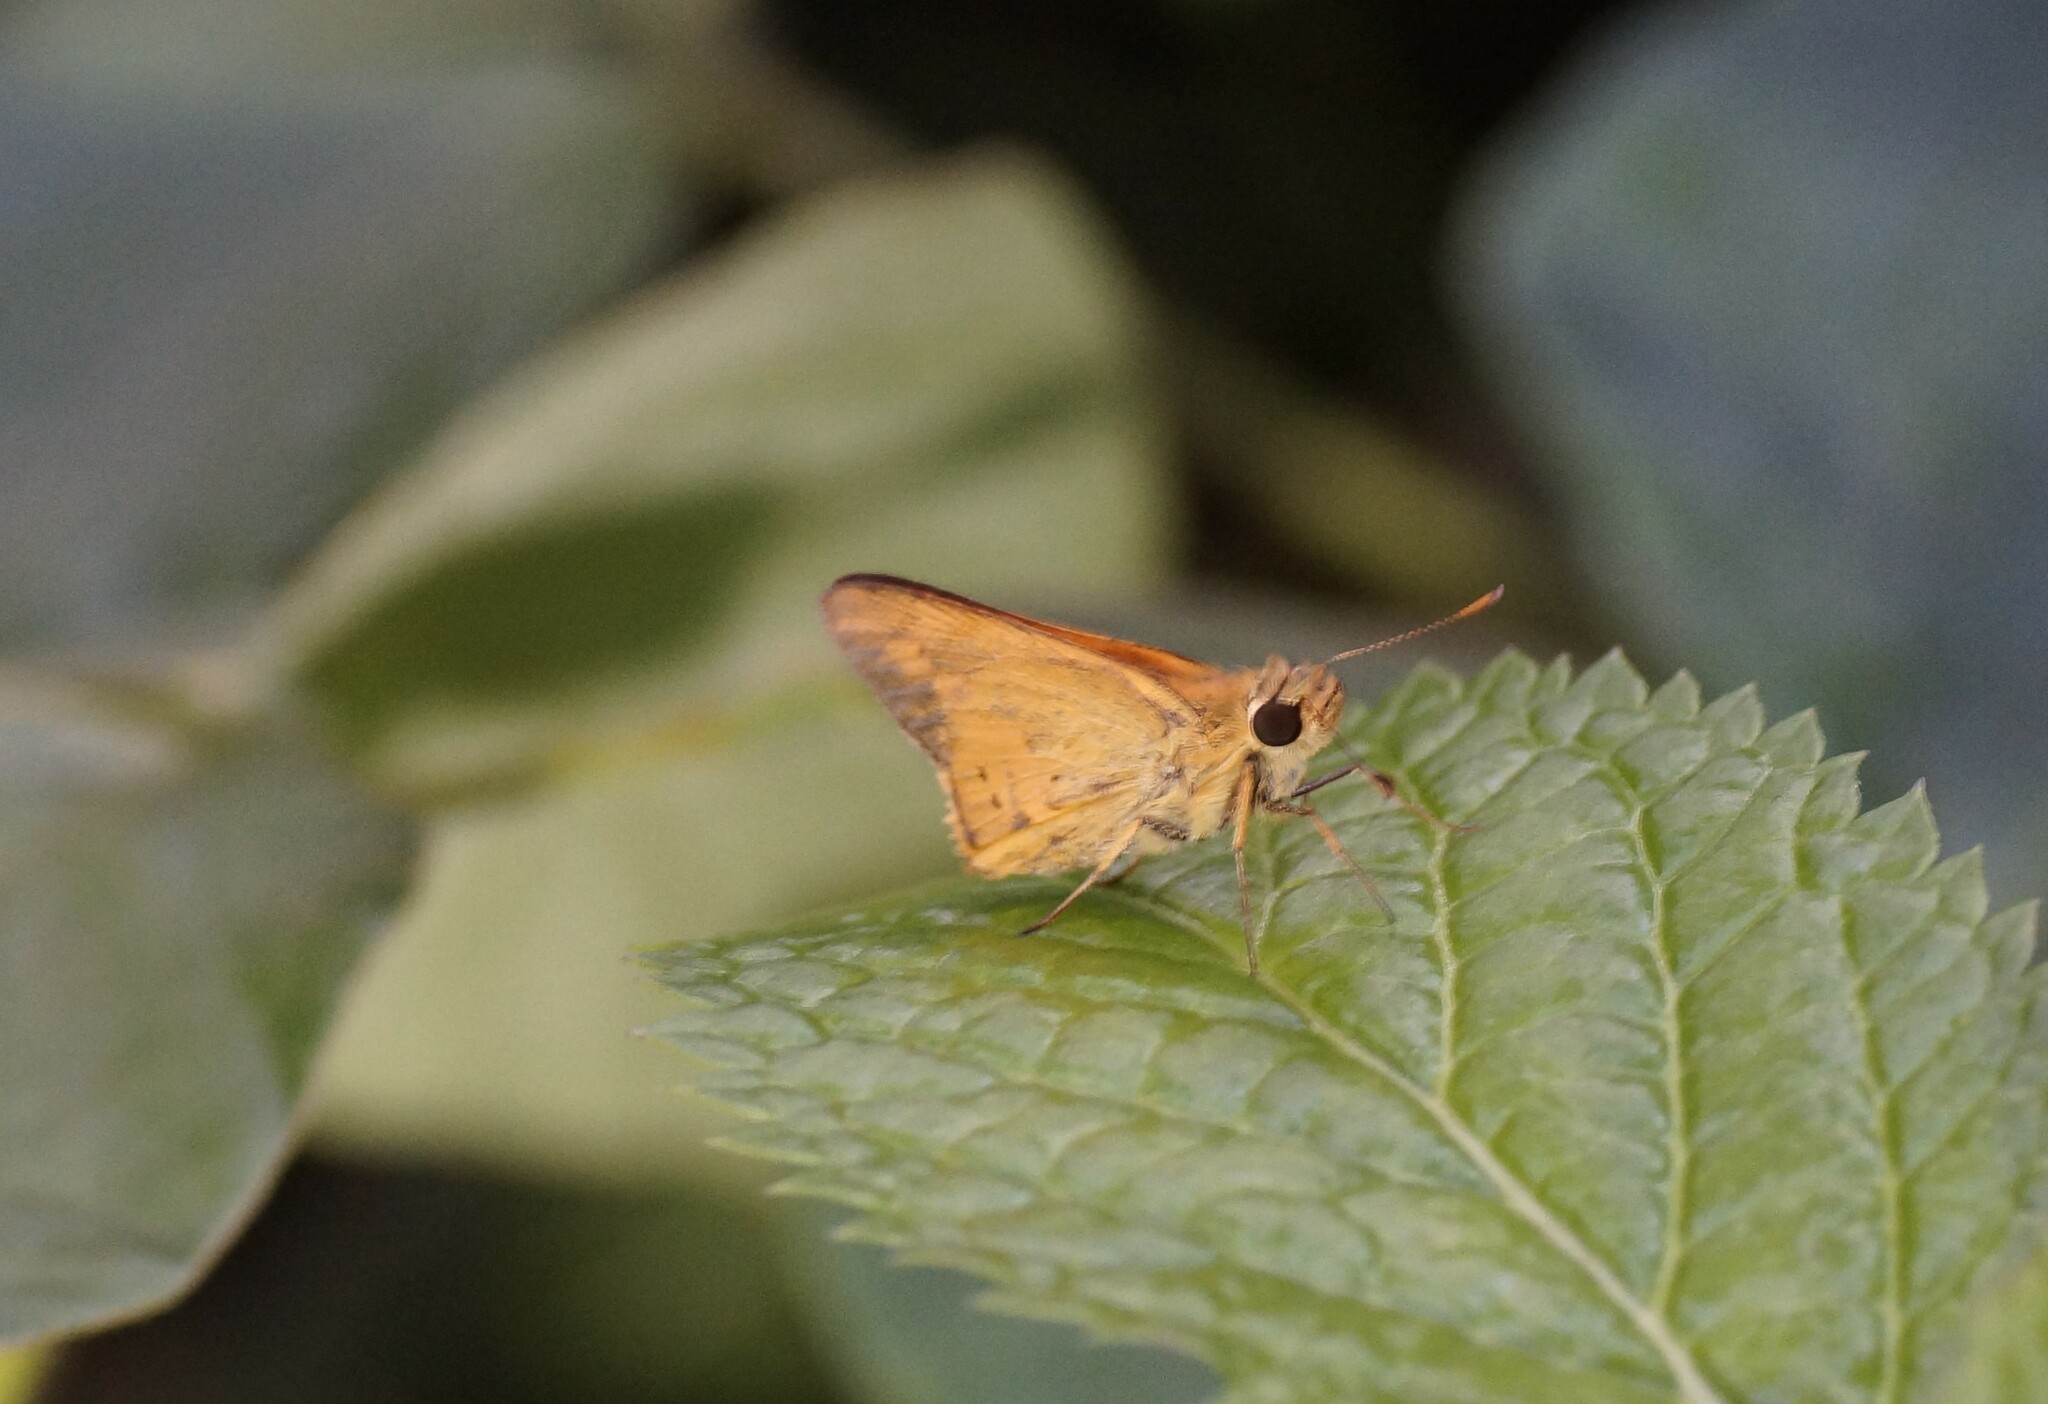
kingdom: Animalia
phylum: Arthropoda
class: Insecta
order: Lepidoptera
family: Hesperiidae
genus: Telicota
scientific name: Telicota paceka
